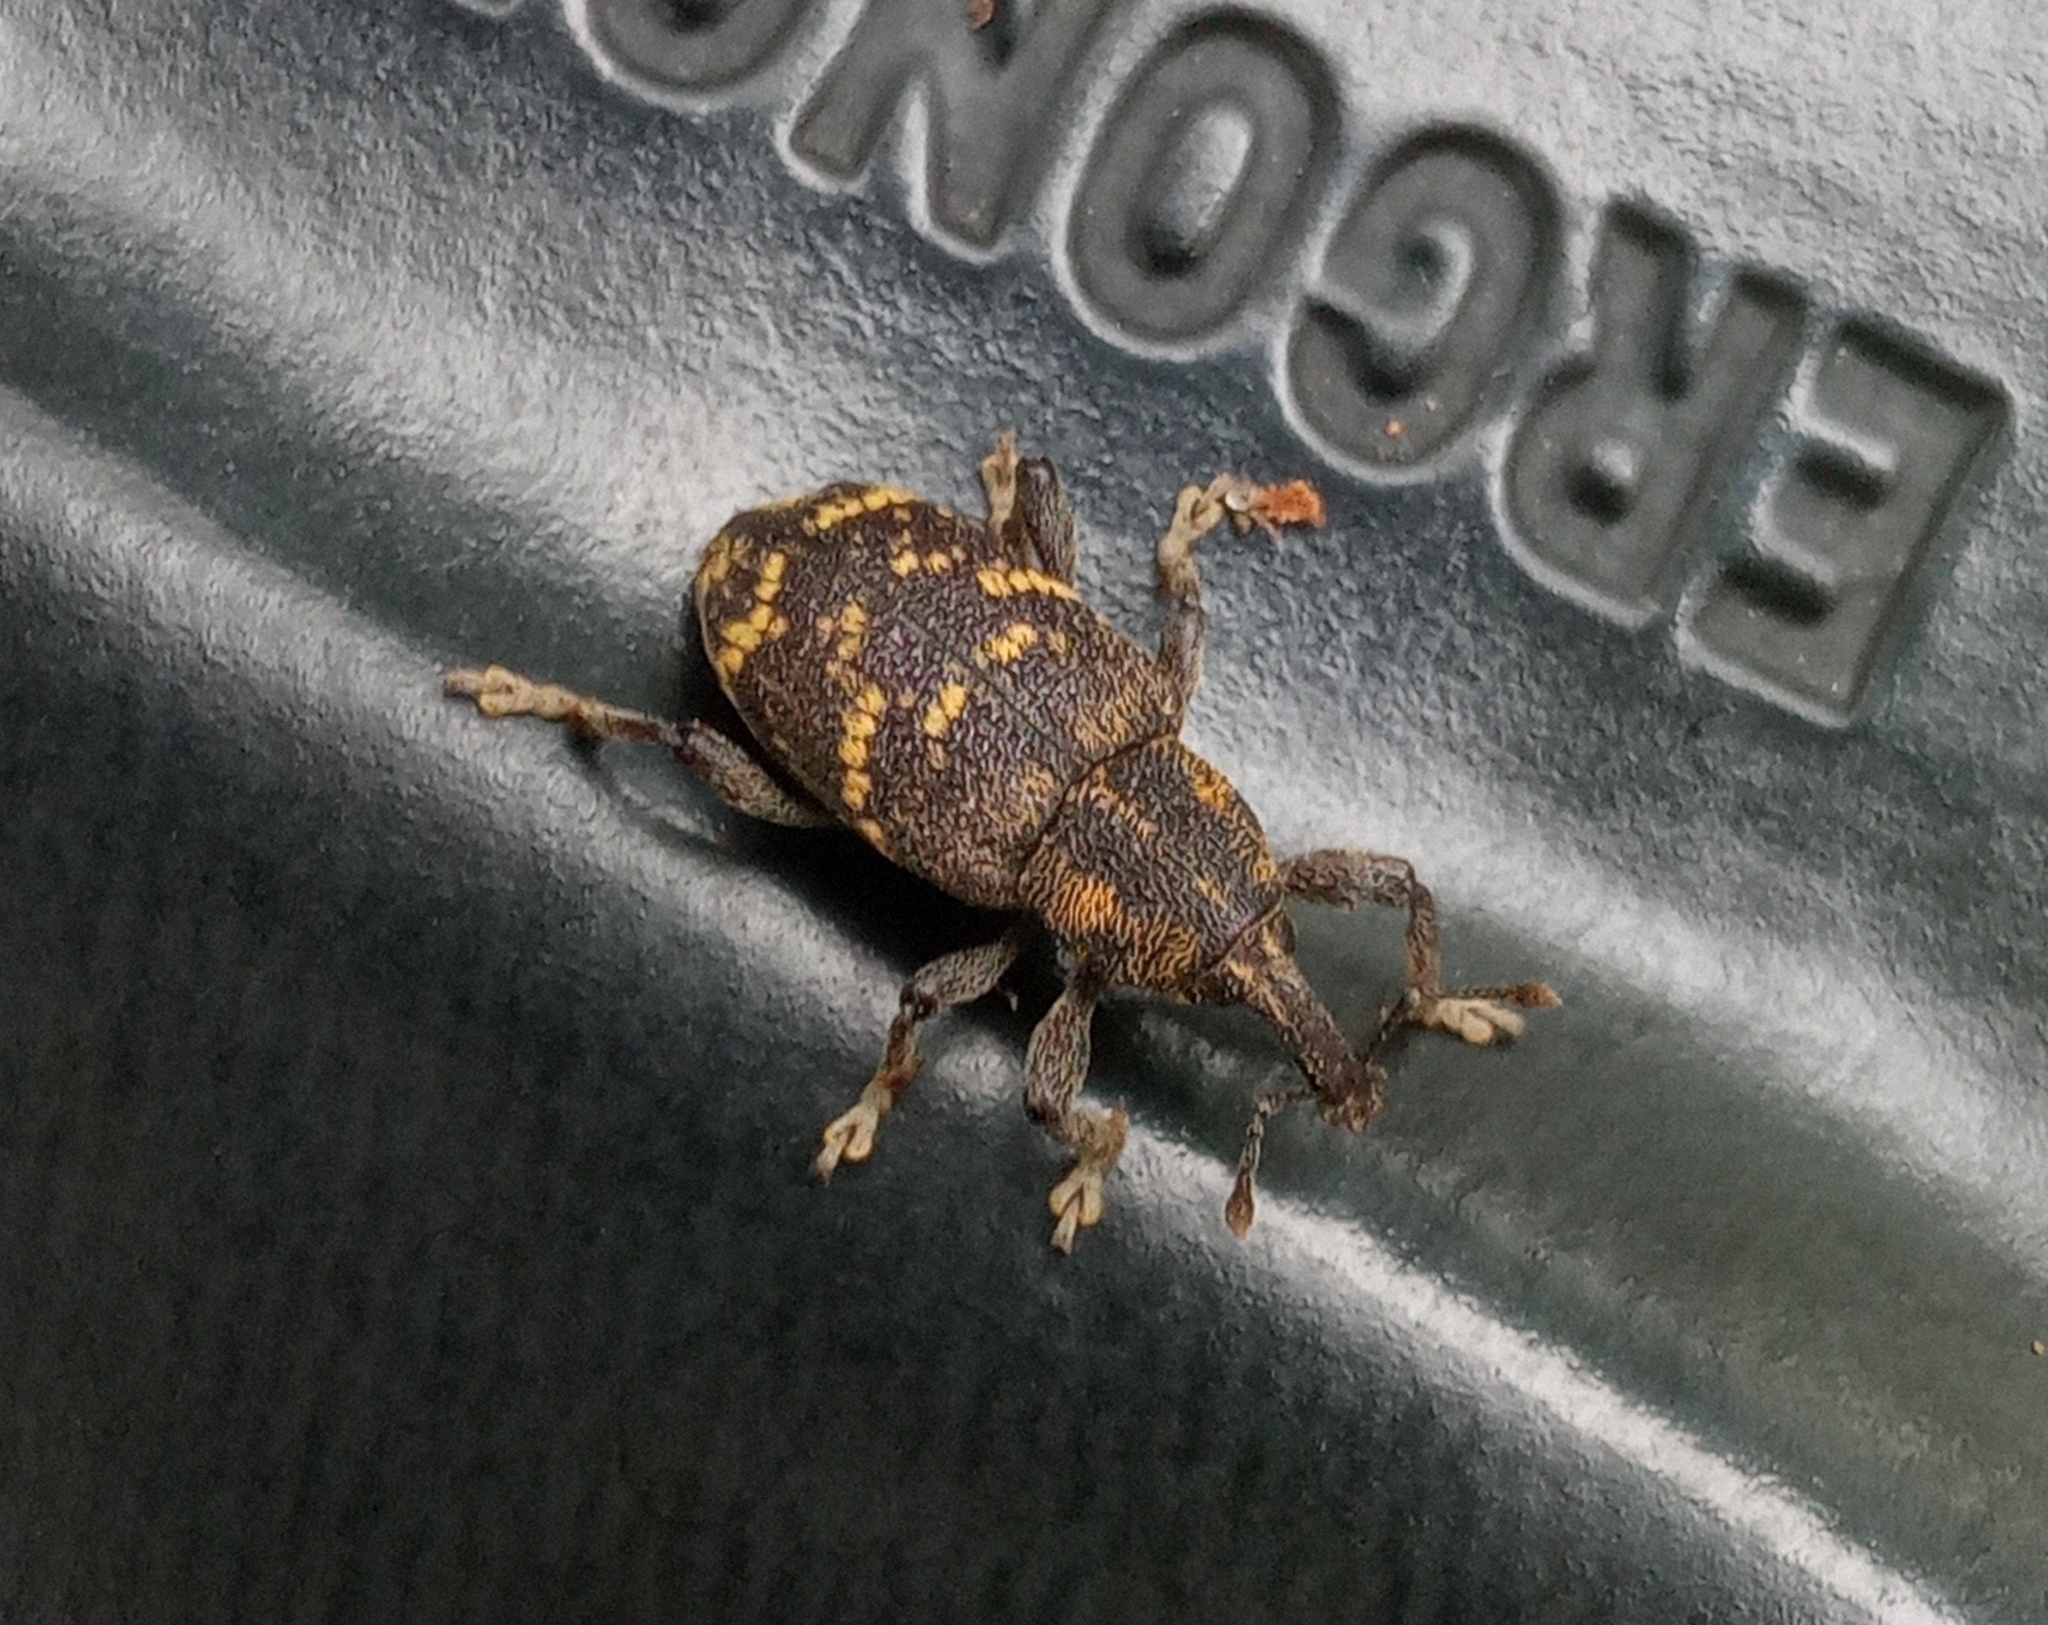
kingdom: Animalia
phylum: Arthropoda
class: Insecta
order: Coleoptera
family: Curculionidae
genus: Hylobius
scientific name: Hylobius abietis
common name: Large pine weevil
